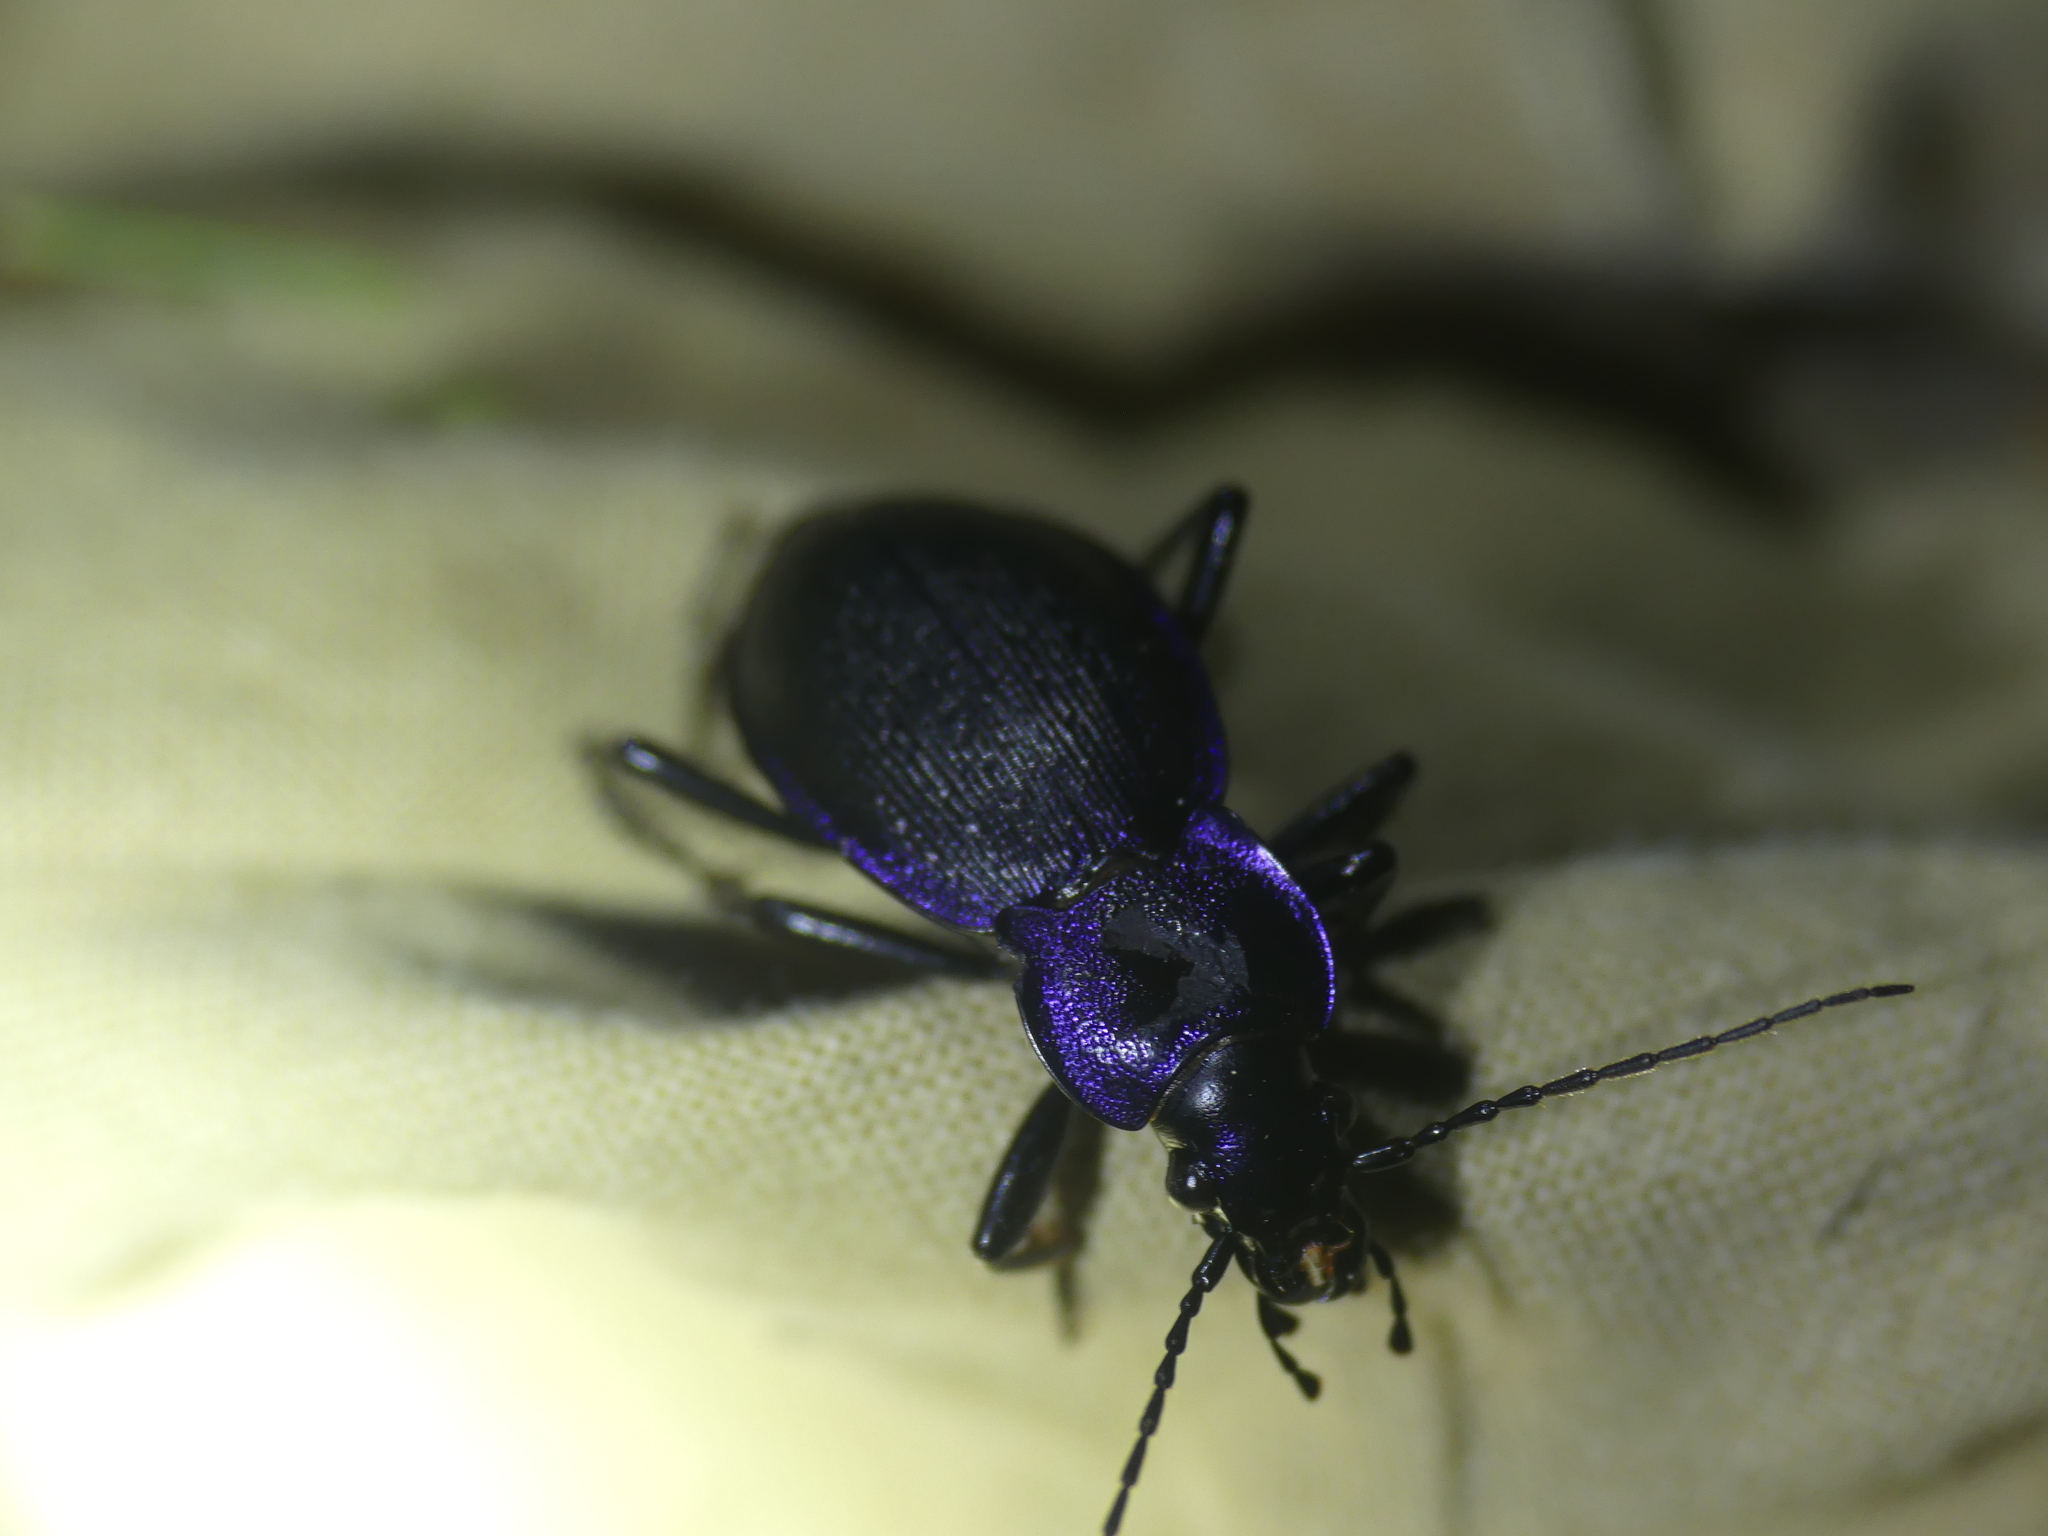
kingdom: Animalia
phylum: Arthropoda
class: Insecta
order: Coleoptera
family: Carabidae
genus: Carabus
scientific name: Carabus problematicus
